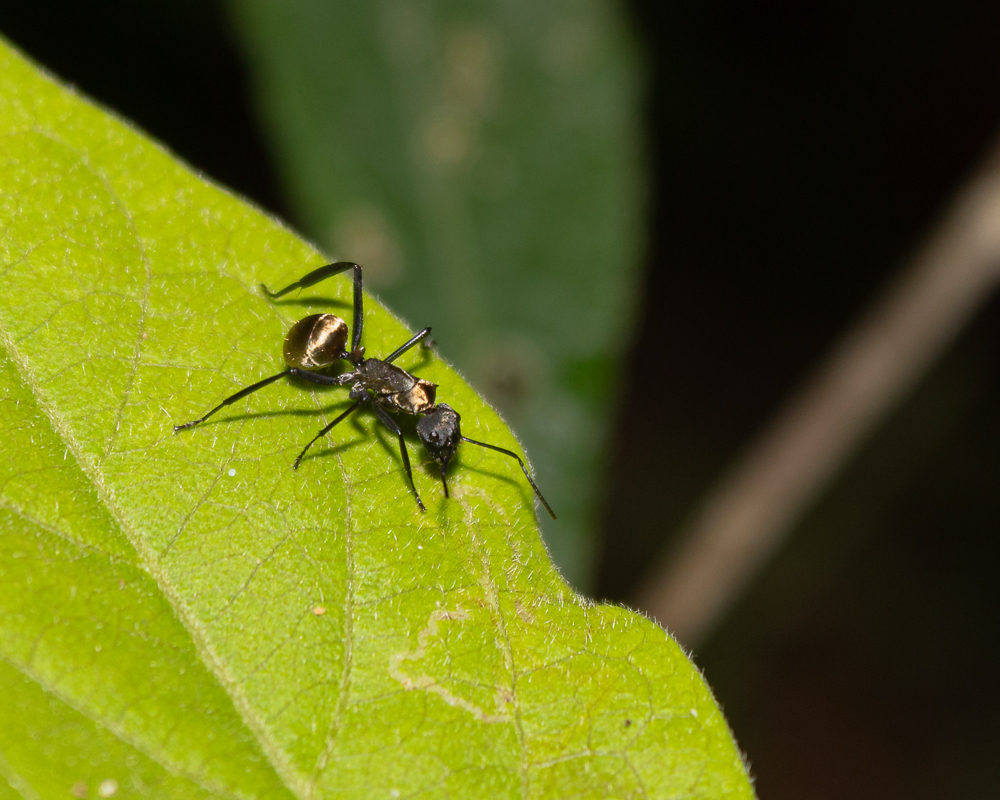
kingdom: Animalia
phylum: Arthropoda
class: Insecta
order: Hymenoptera
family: Formicidae
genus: Camponotus
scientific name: Camponotus sericeiventris
